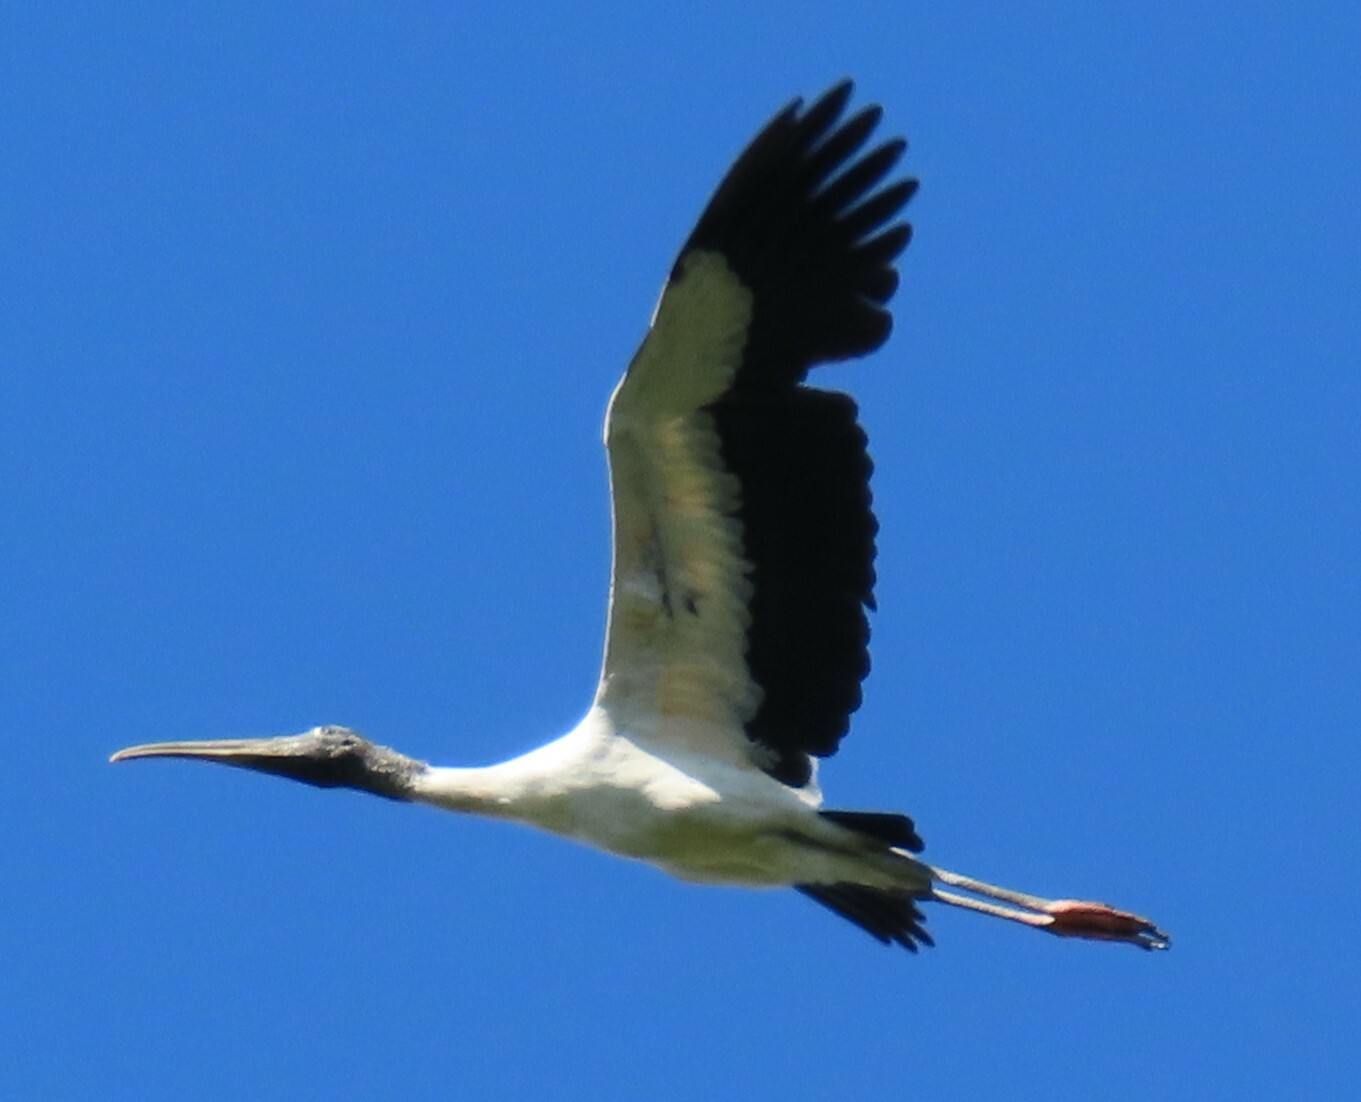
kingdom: Animalia
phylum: Chordata
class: Aves
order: Ciconiiformes
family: Ciconiidae
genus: Mycteria
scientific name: Mycteria americana
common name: Wood stork
